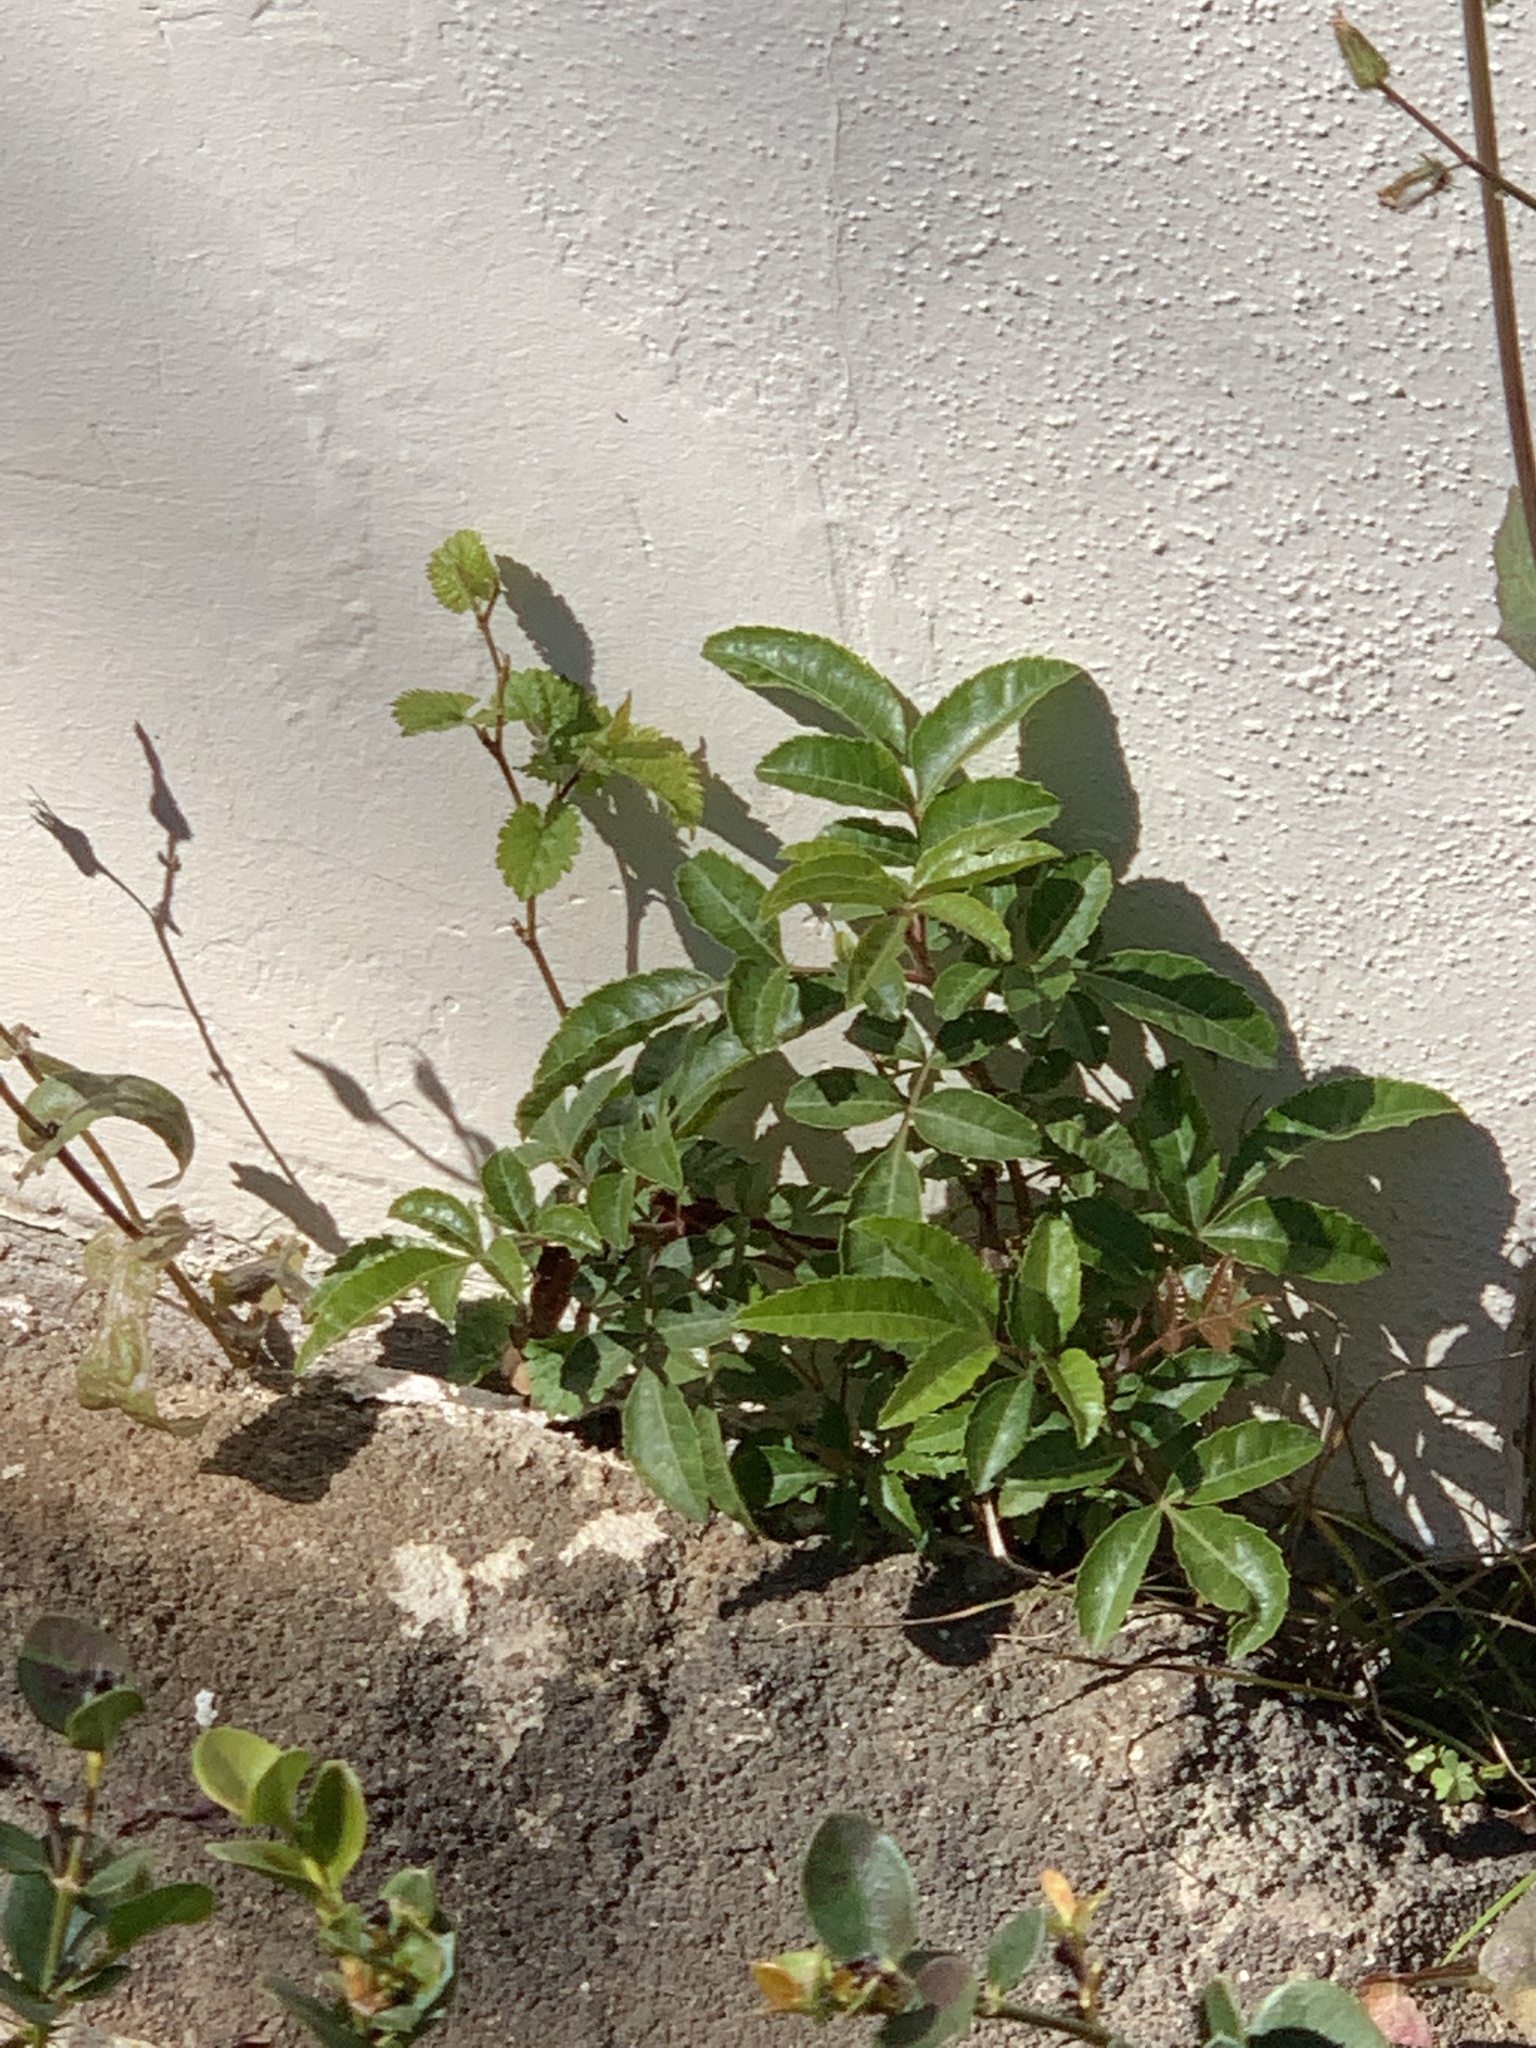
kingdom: Plantae
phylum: Tracheophyta
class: Magnoliopsida
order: Sapindales
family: Anacardiaceae
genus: Schinus
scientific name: Schinus terebinthifolia
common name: Brazilian peppertree
